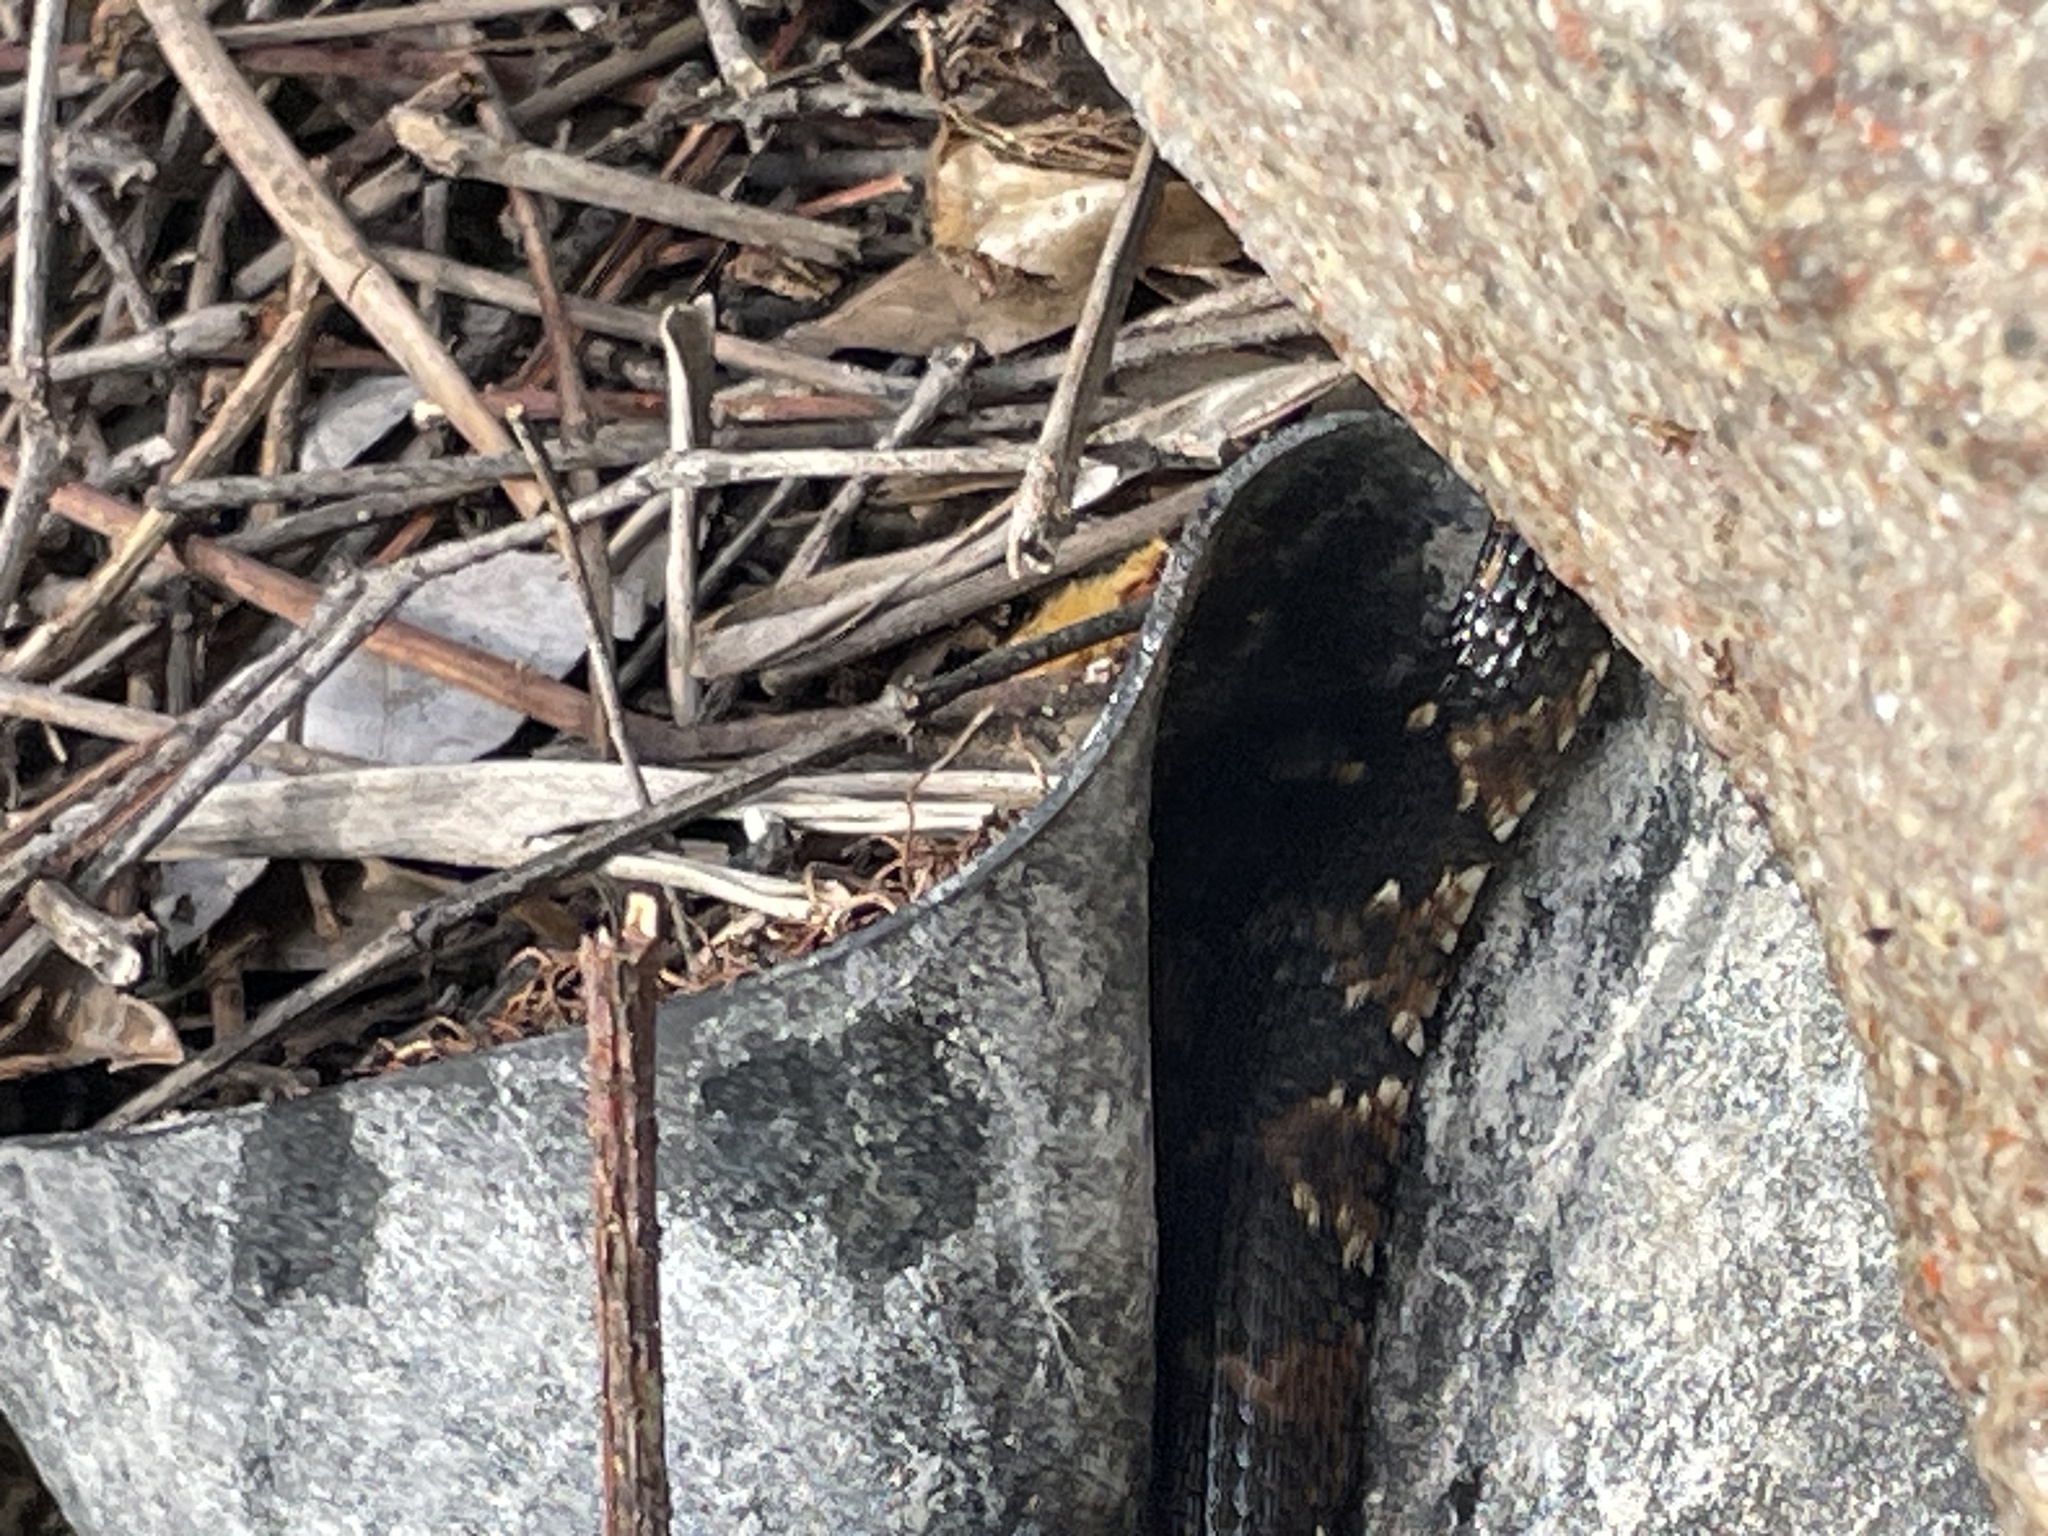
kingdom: Animalia
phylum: Chordata
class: Squamata
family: Colubridae
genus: Nerodia
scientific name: Nerodia
